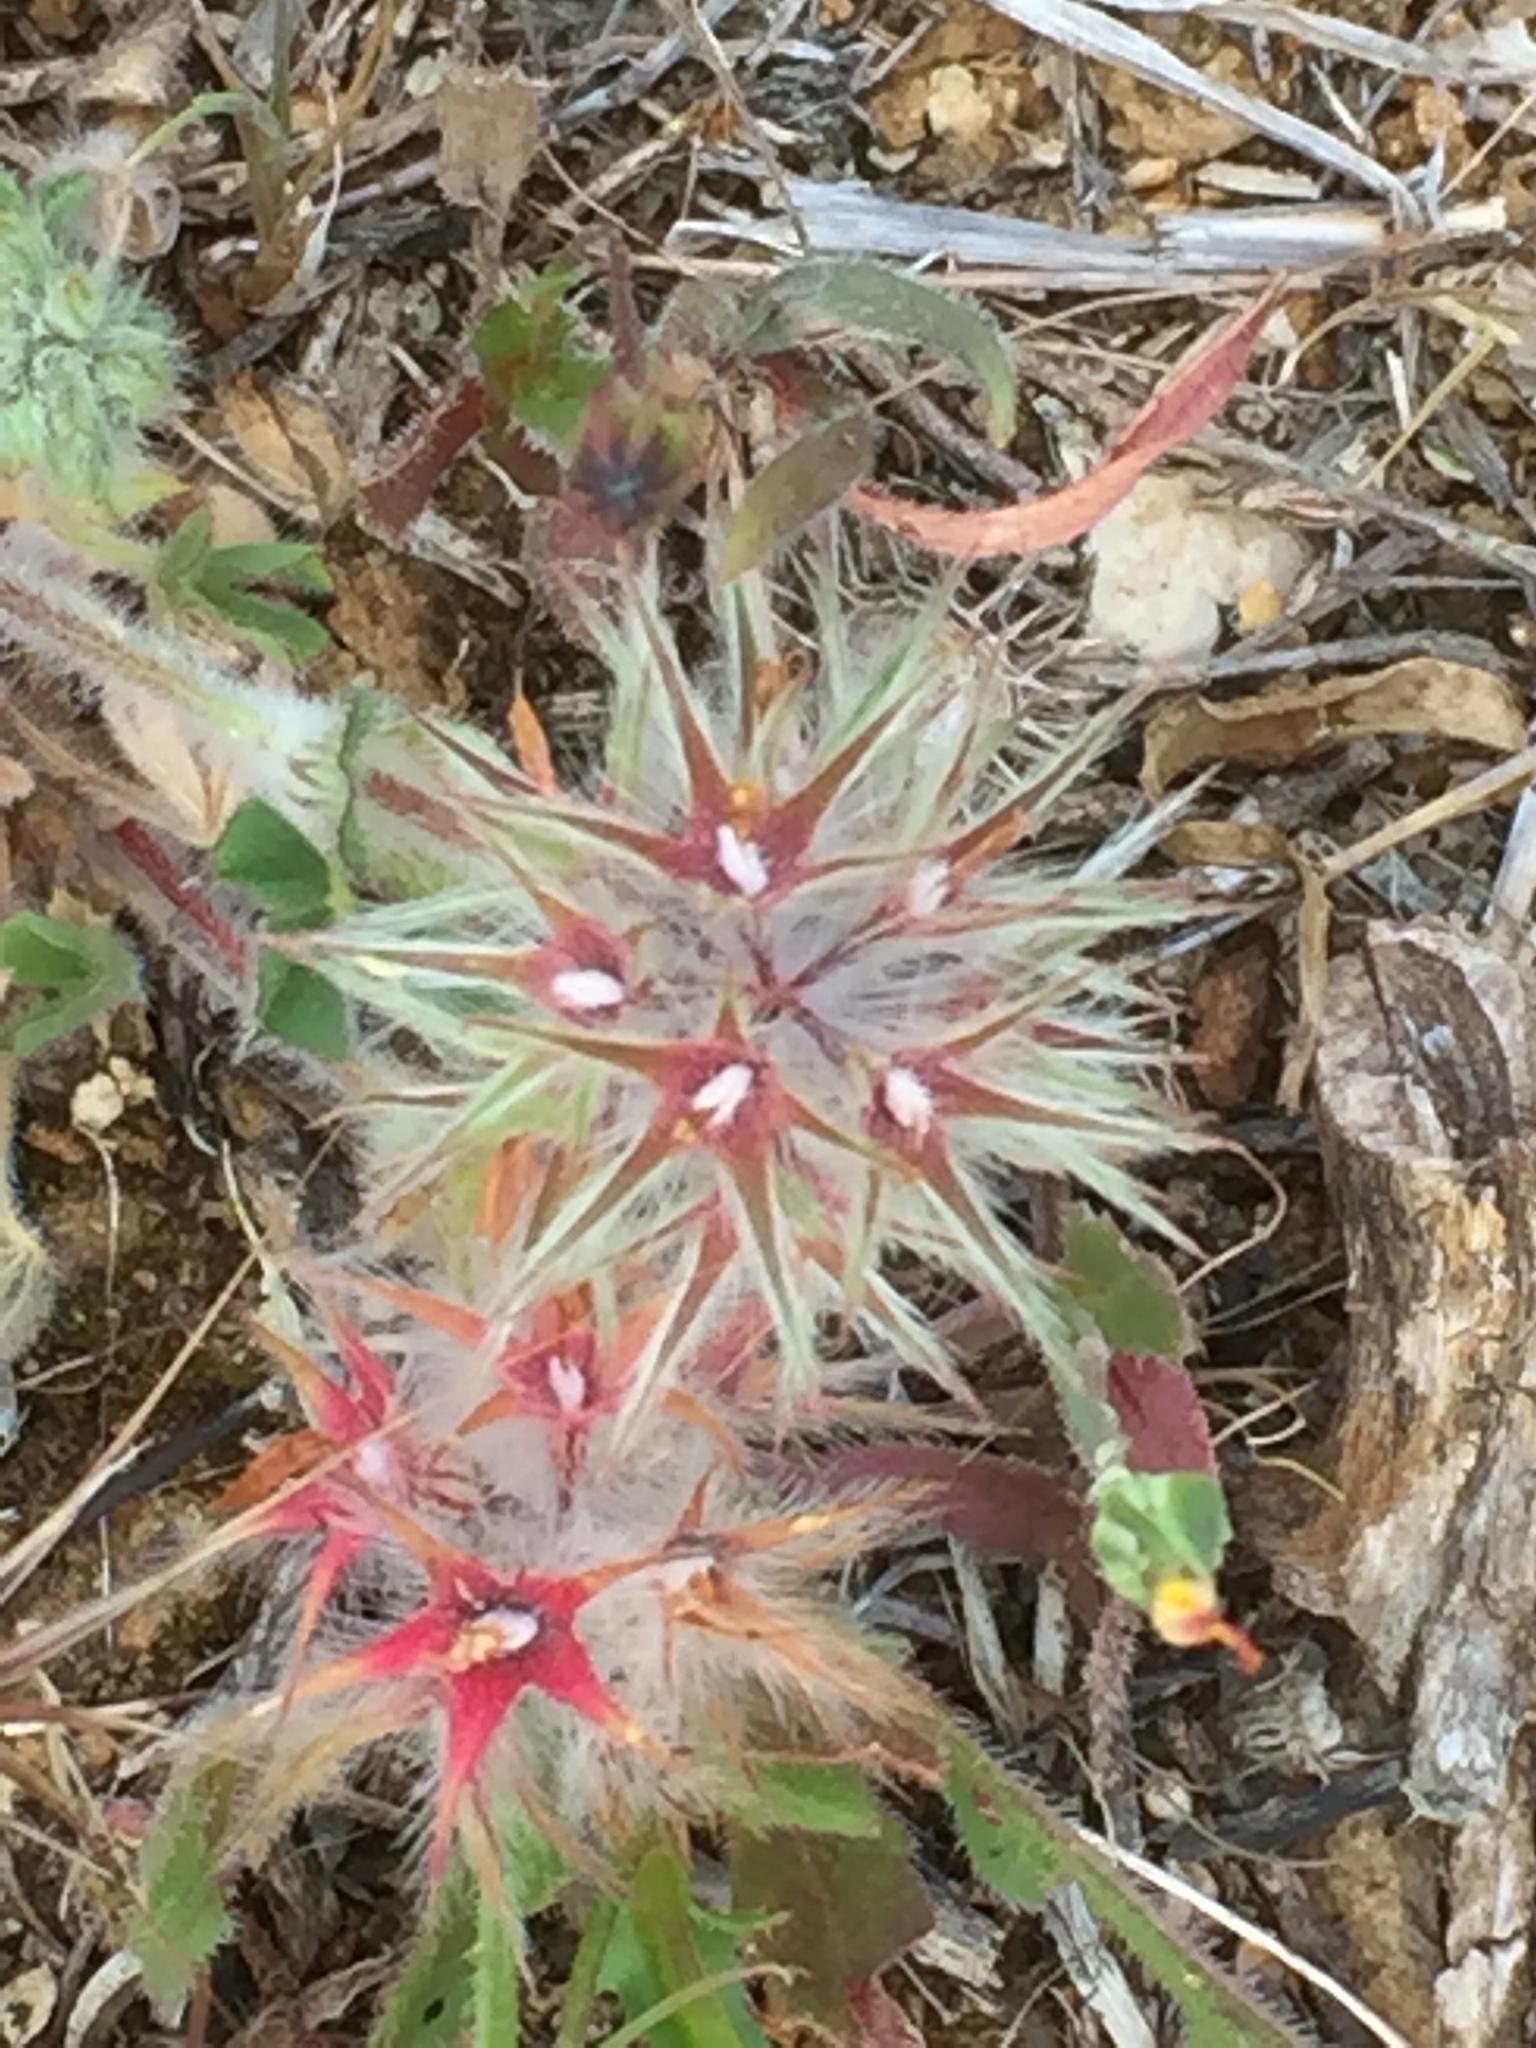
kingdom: Plantae
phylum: Tracheophyta
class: Magnoliopsida
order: Fabales
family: Fabaceae
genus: Trifolium
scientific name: Trifolium stellatum
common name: Starry clover
